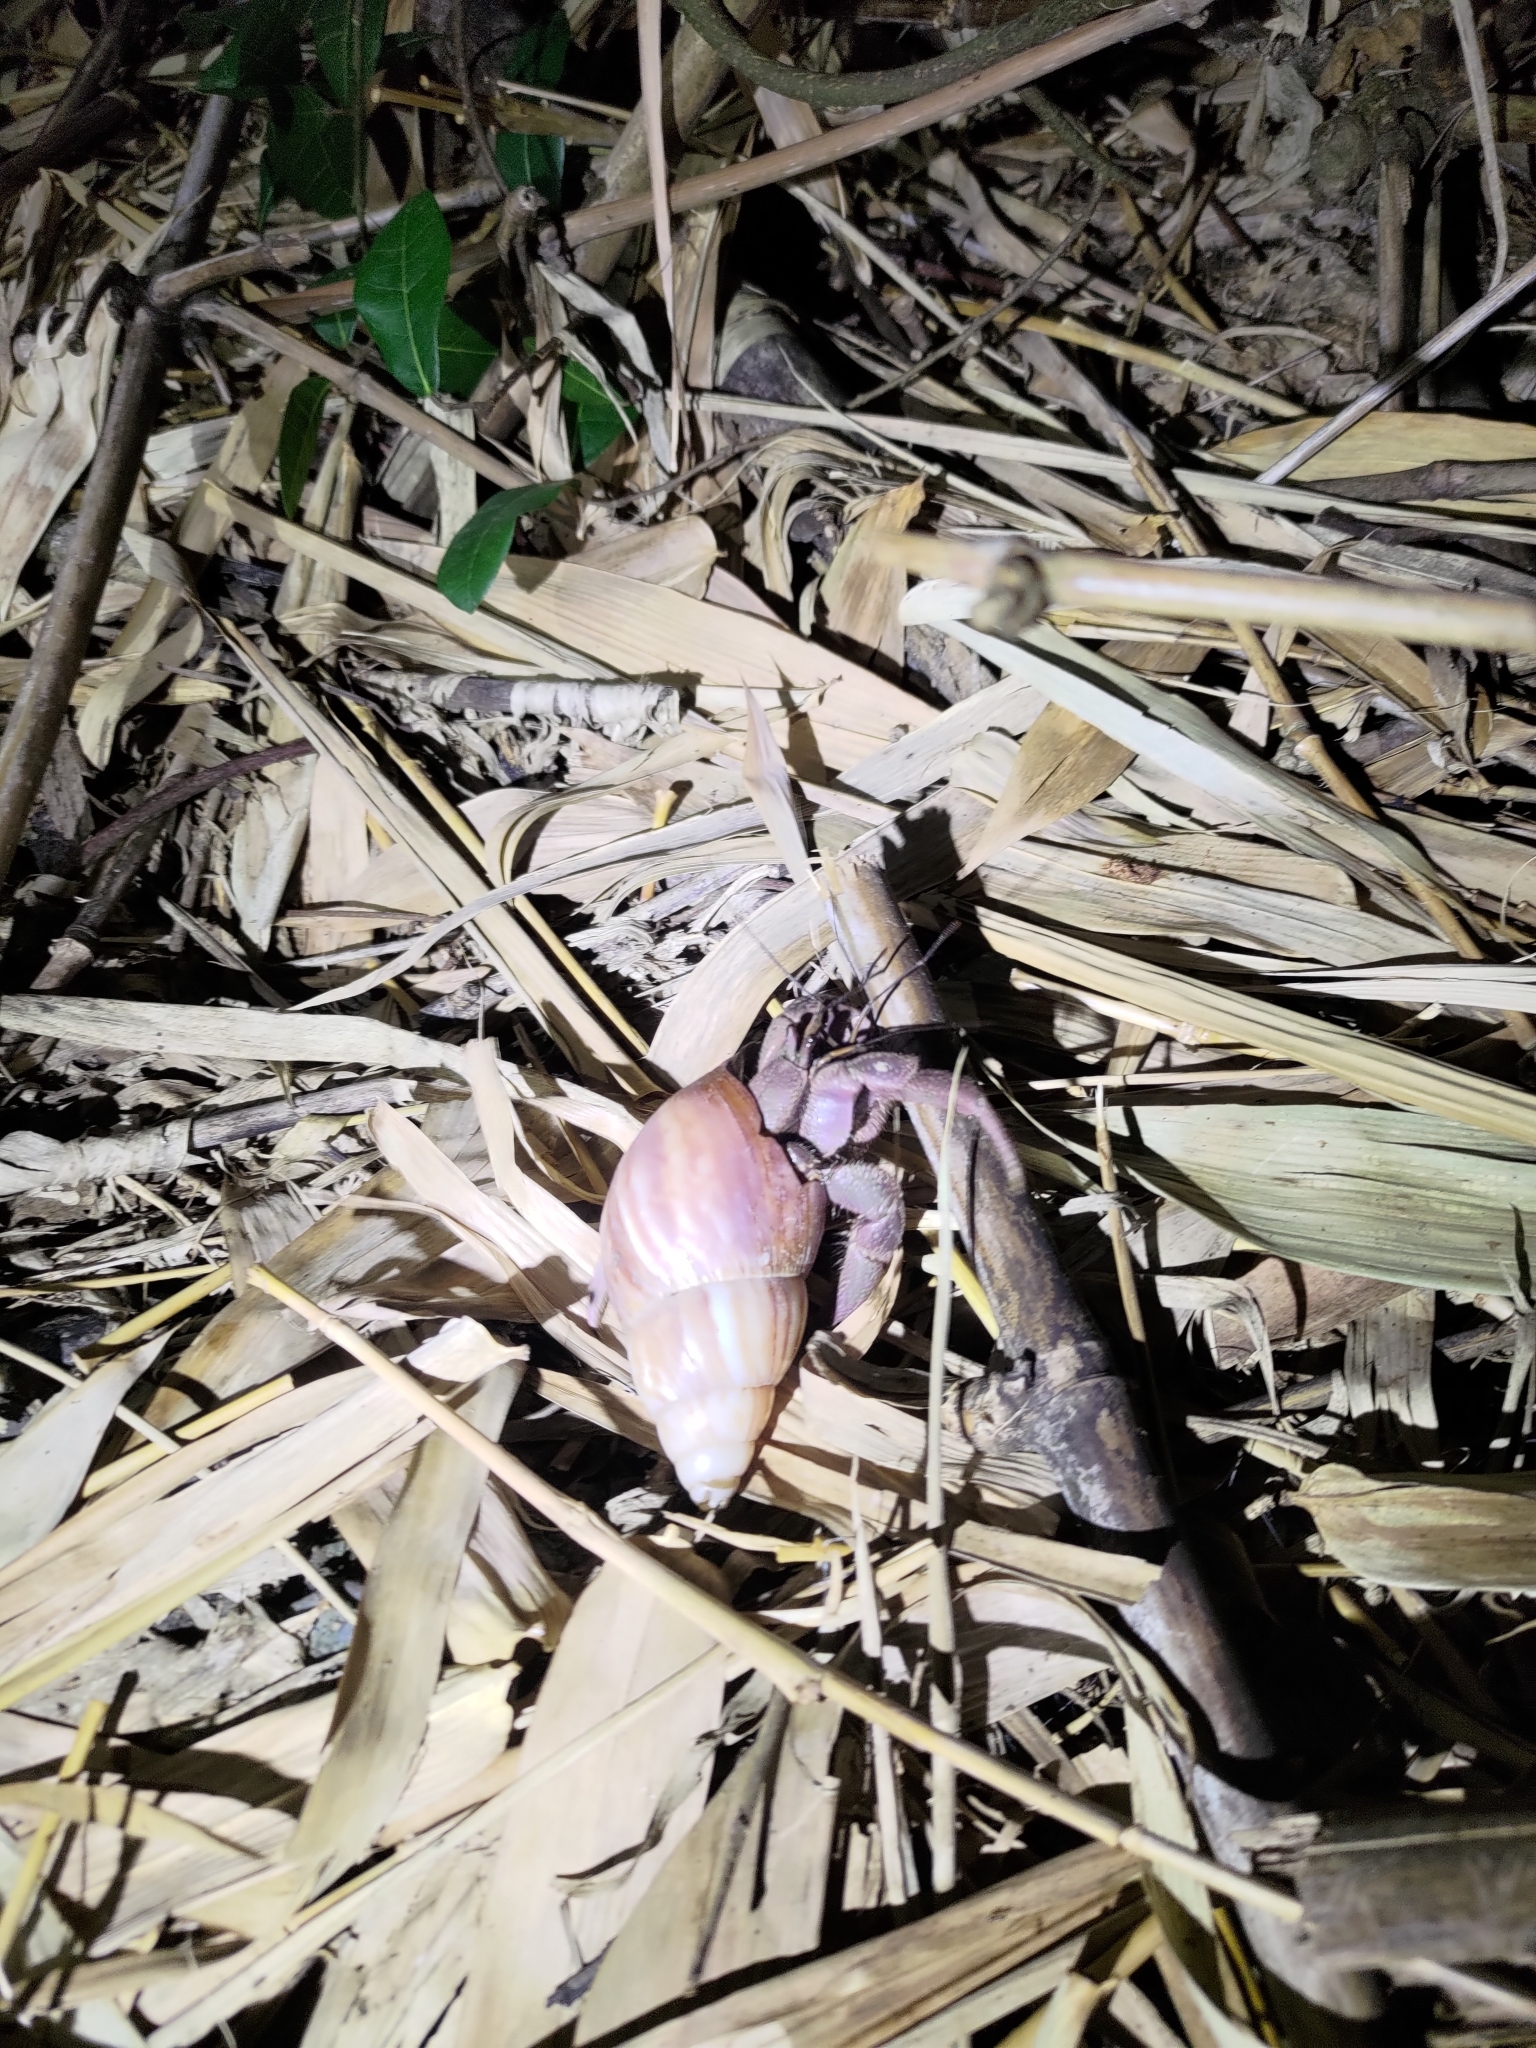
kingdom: Animalia
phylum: Arthropoda
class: Malacostraca
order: Decapoda
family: Coenobitidae
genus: Coenobita
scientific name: Coenobita brevimanus
